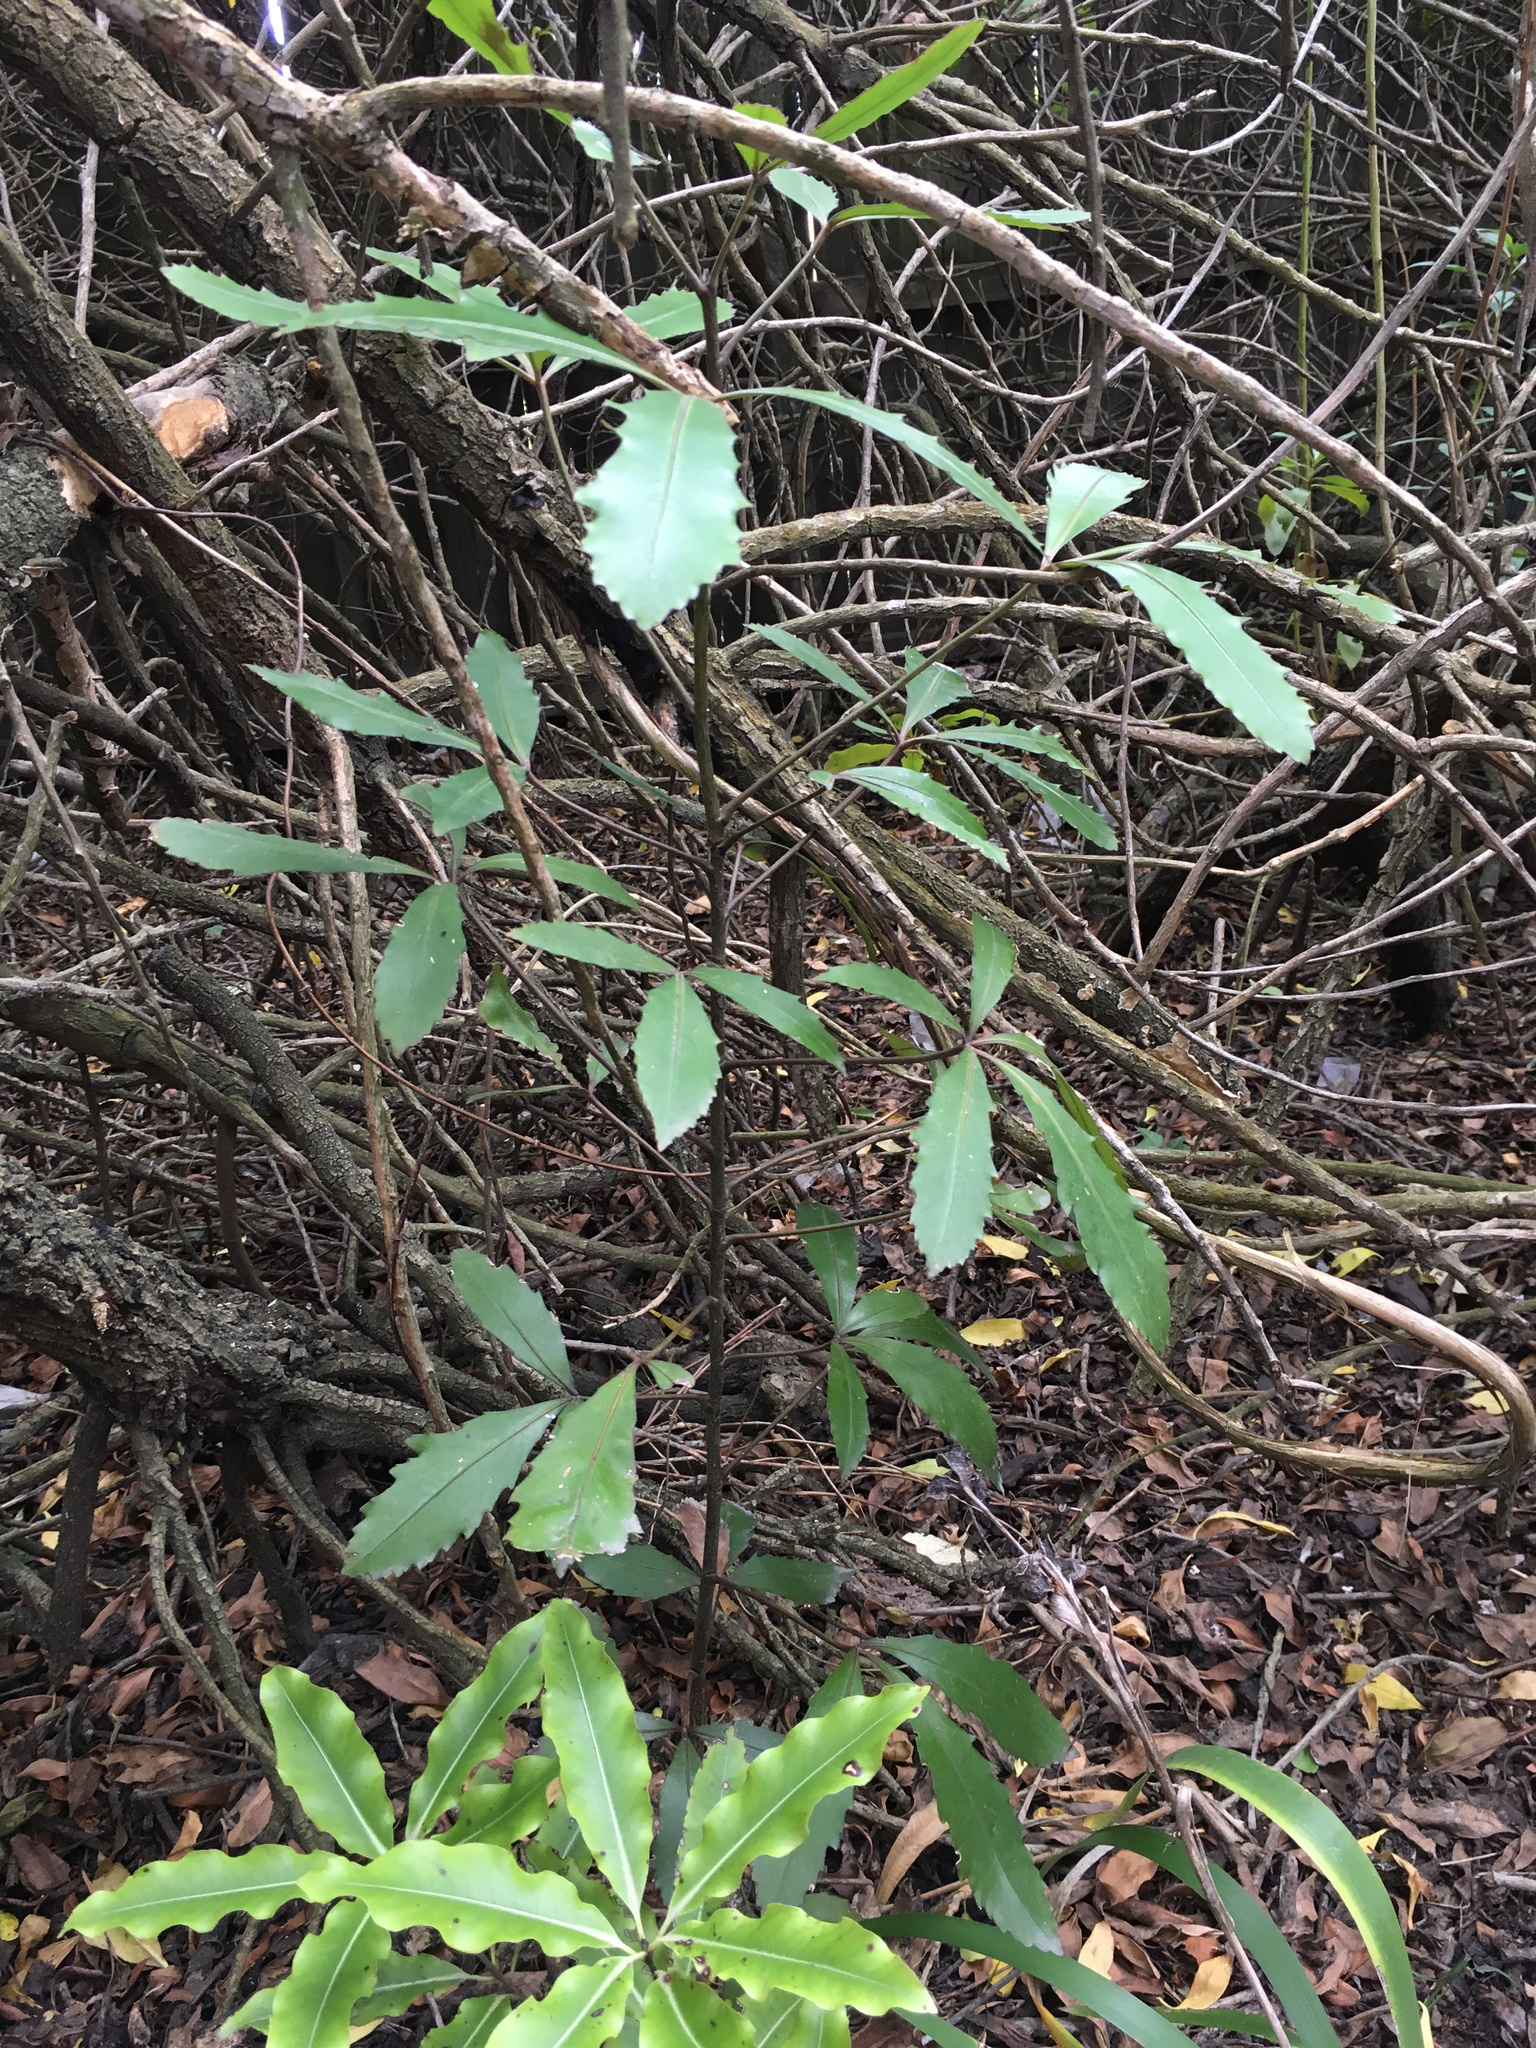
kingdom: Plantae
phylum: Tracheophyta
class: Magnoliopsida
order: Apiales
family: Araliaceae
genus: Pseudopanax
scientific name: Pseudopanax lessonii
